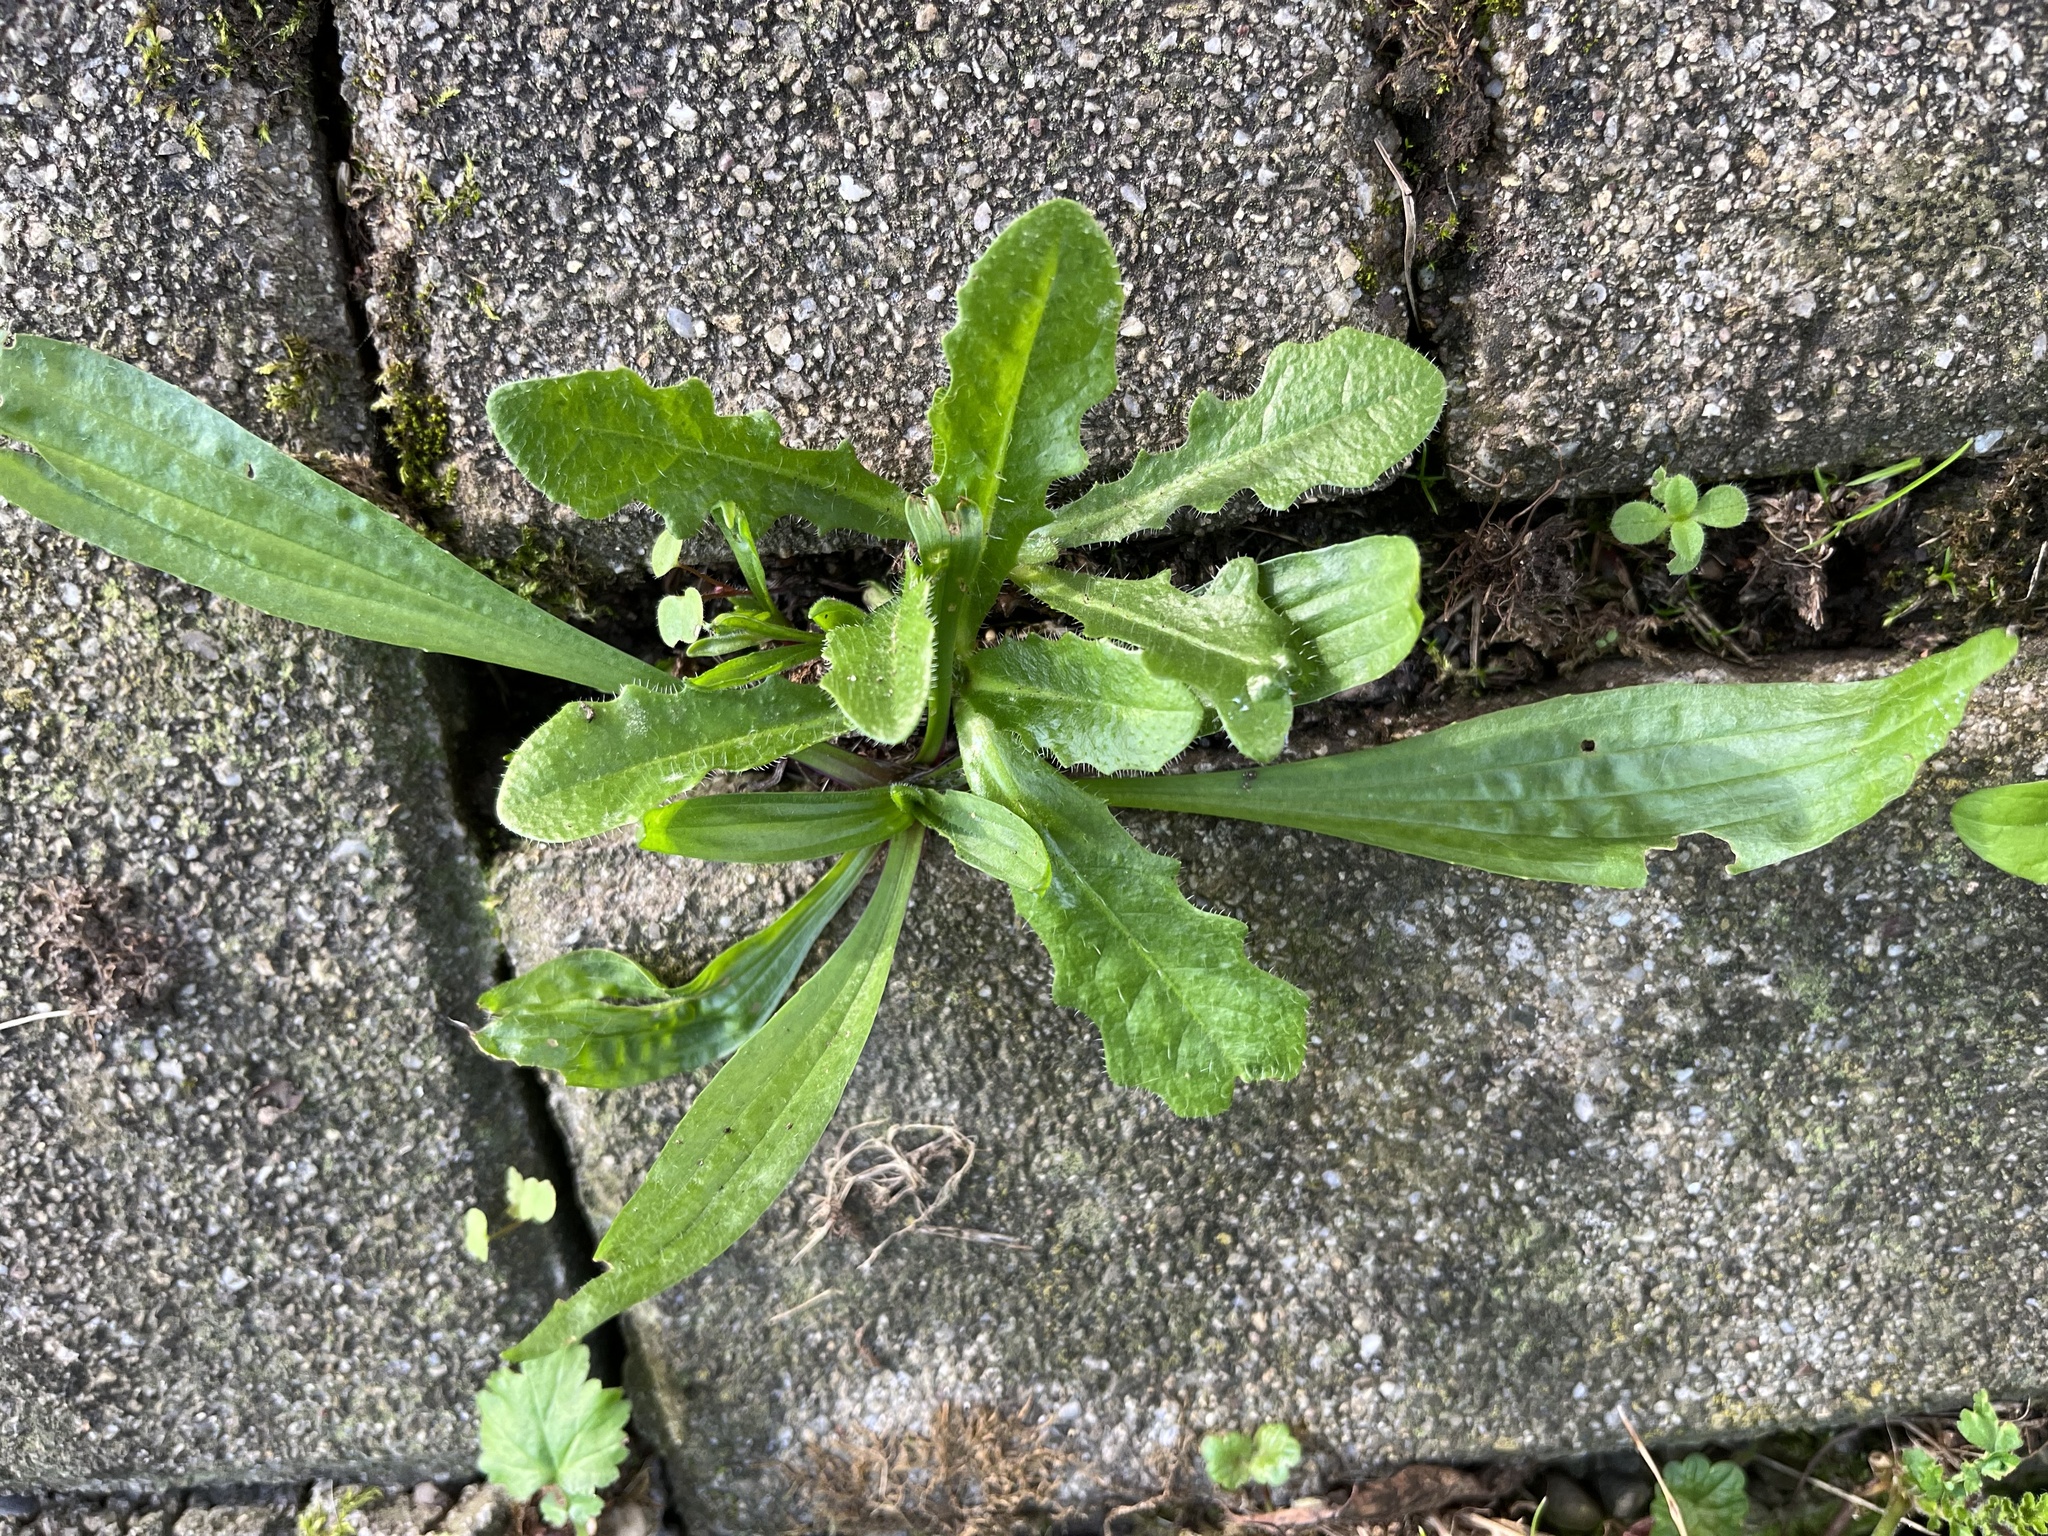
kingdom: Plantae
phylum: Tracheophyta
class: Magnoliopsida
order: Asterales
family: Asteraceae
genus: Hypochaeris
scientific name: Hypochaeris radicata
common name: Flatweed
